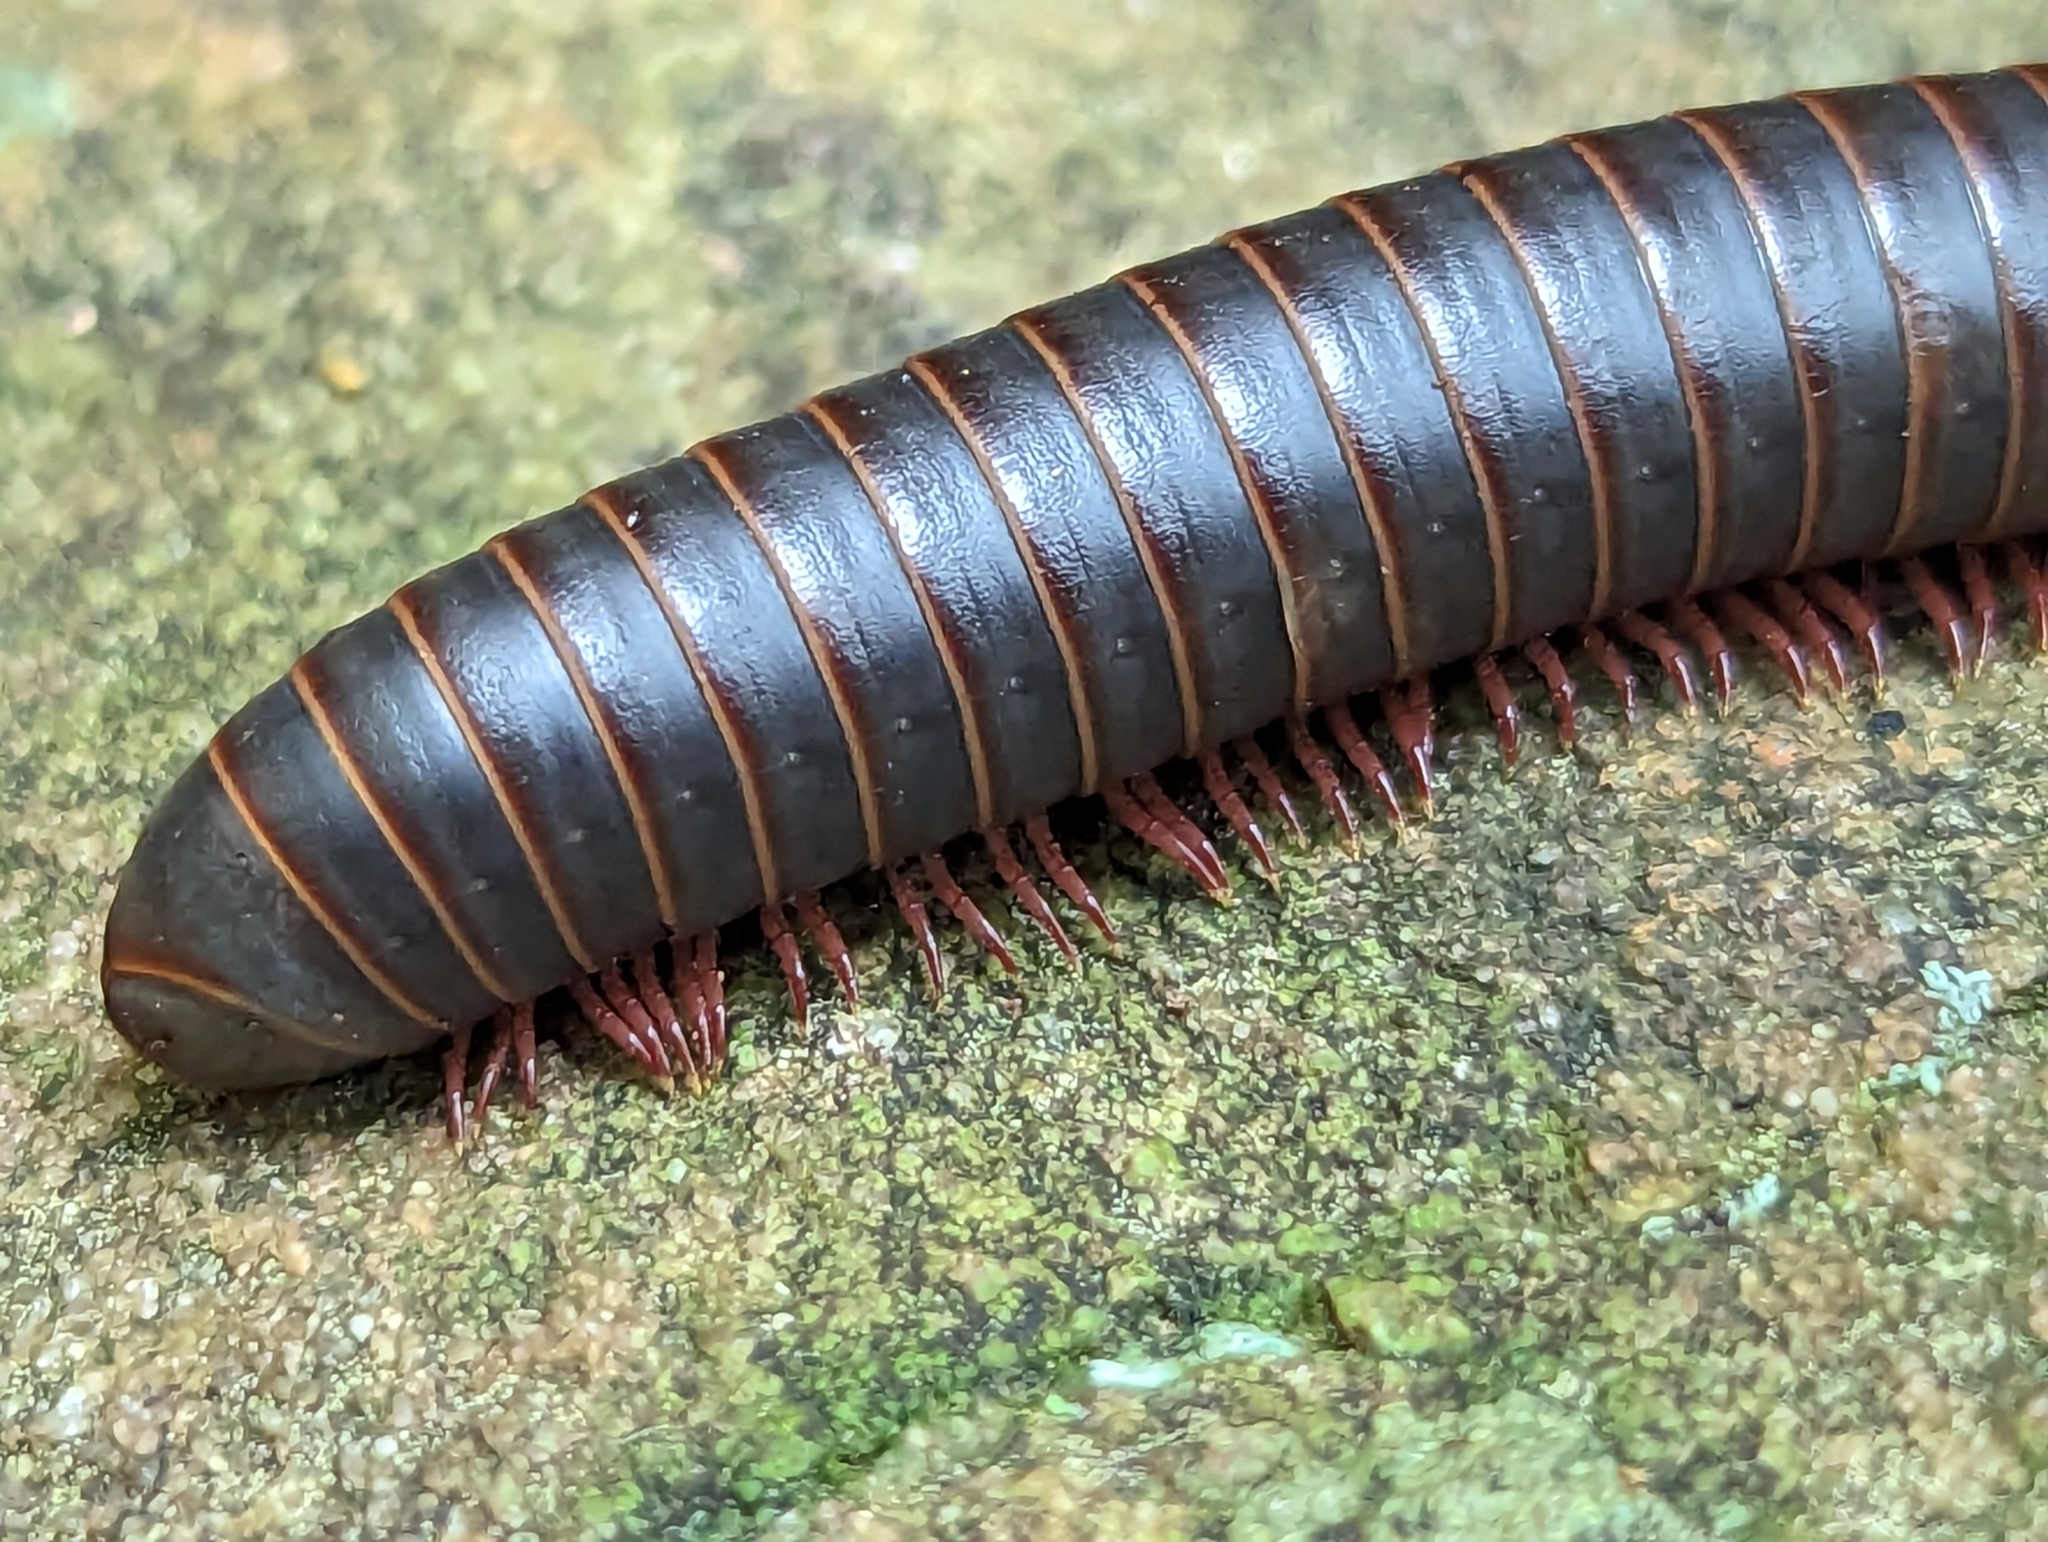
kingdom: Animalia
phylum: Arthropoda
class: Diplopoda
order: Spirobolida
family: Spirobolidae
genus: Narceus
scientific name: Narceus
